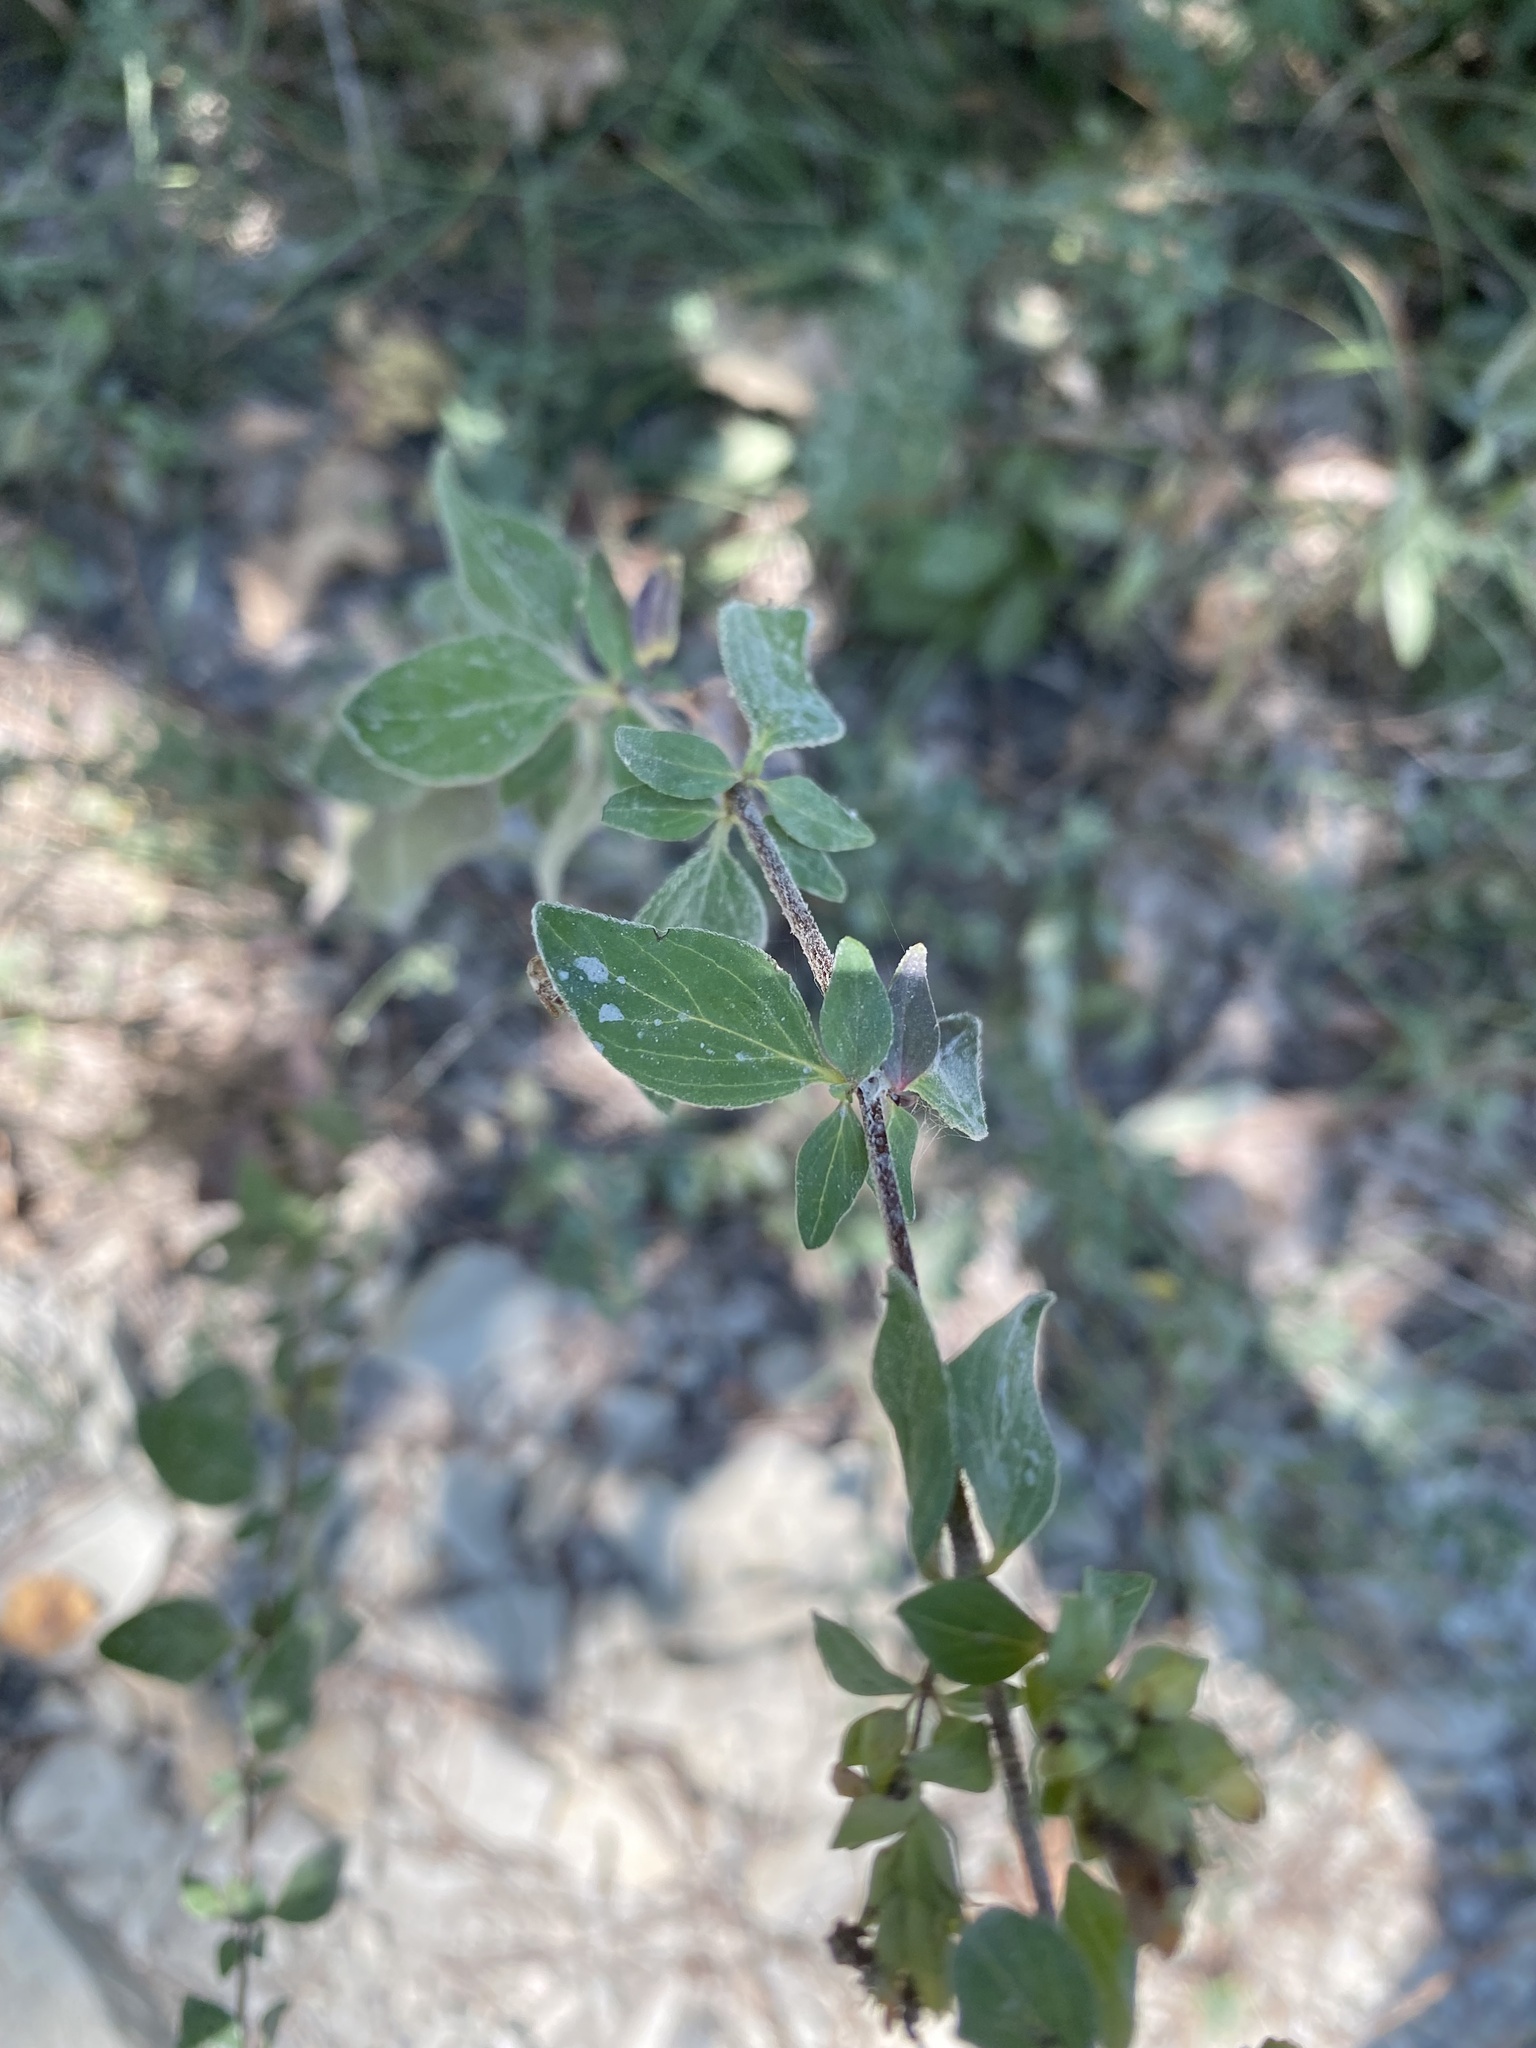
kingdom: Plantae
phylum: Tracheophyta
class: Magnoliopsida
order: Lamiales
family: Lamiaceae
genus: Origanum
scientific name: Origanum vulgare
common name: Wild marjoram
